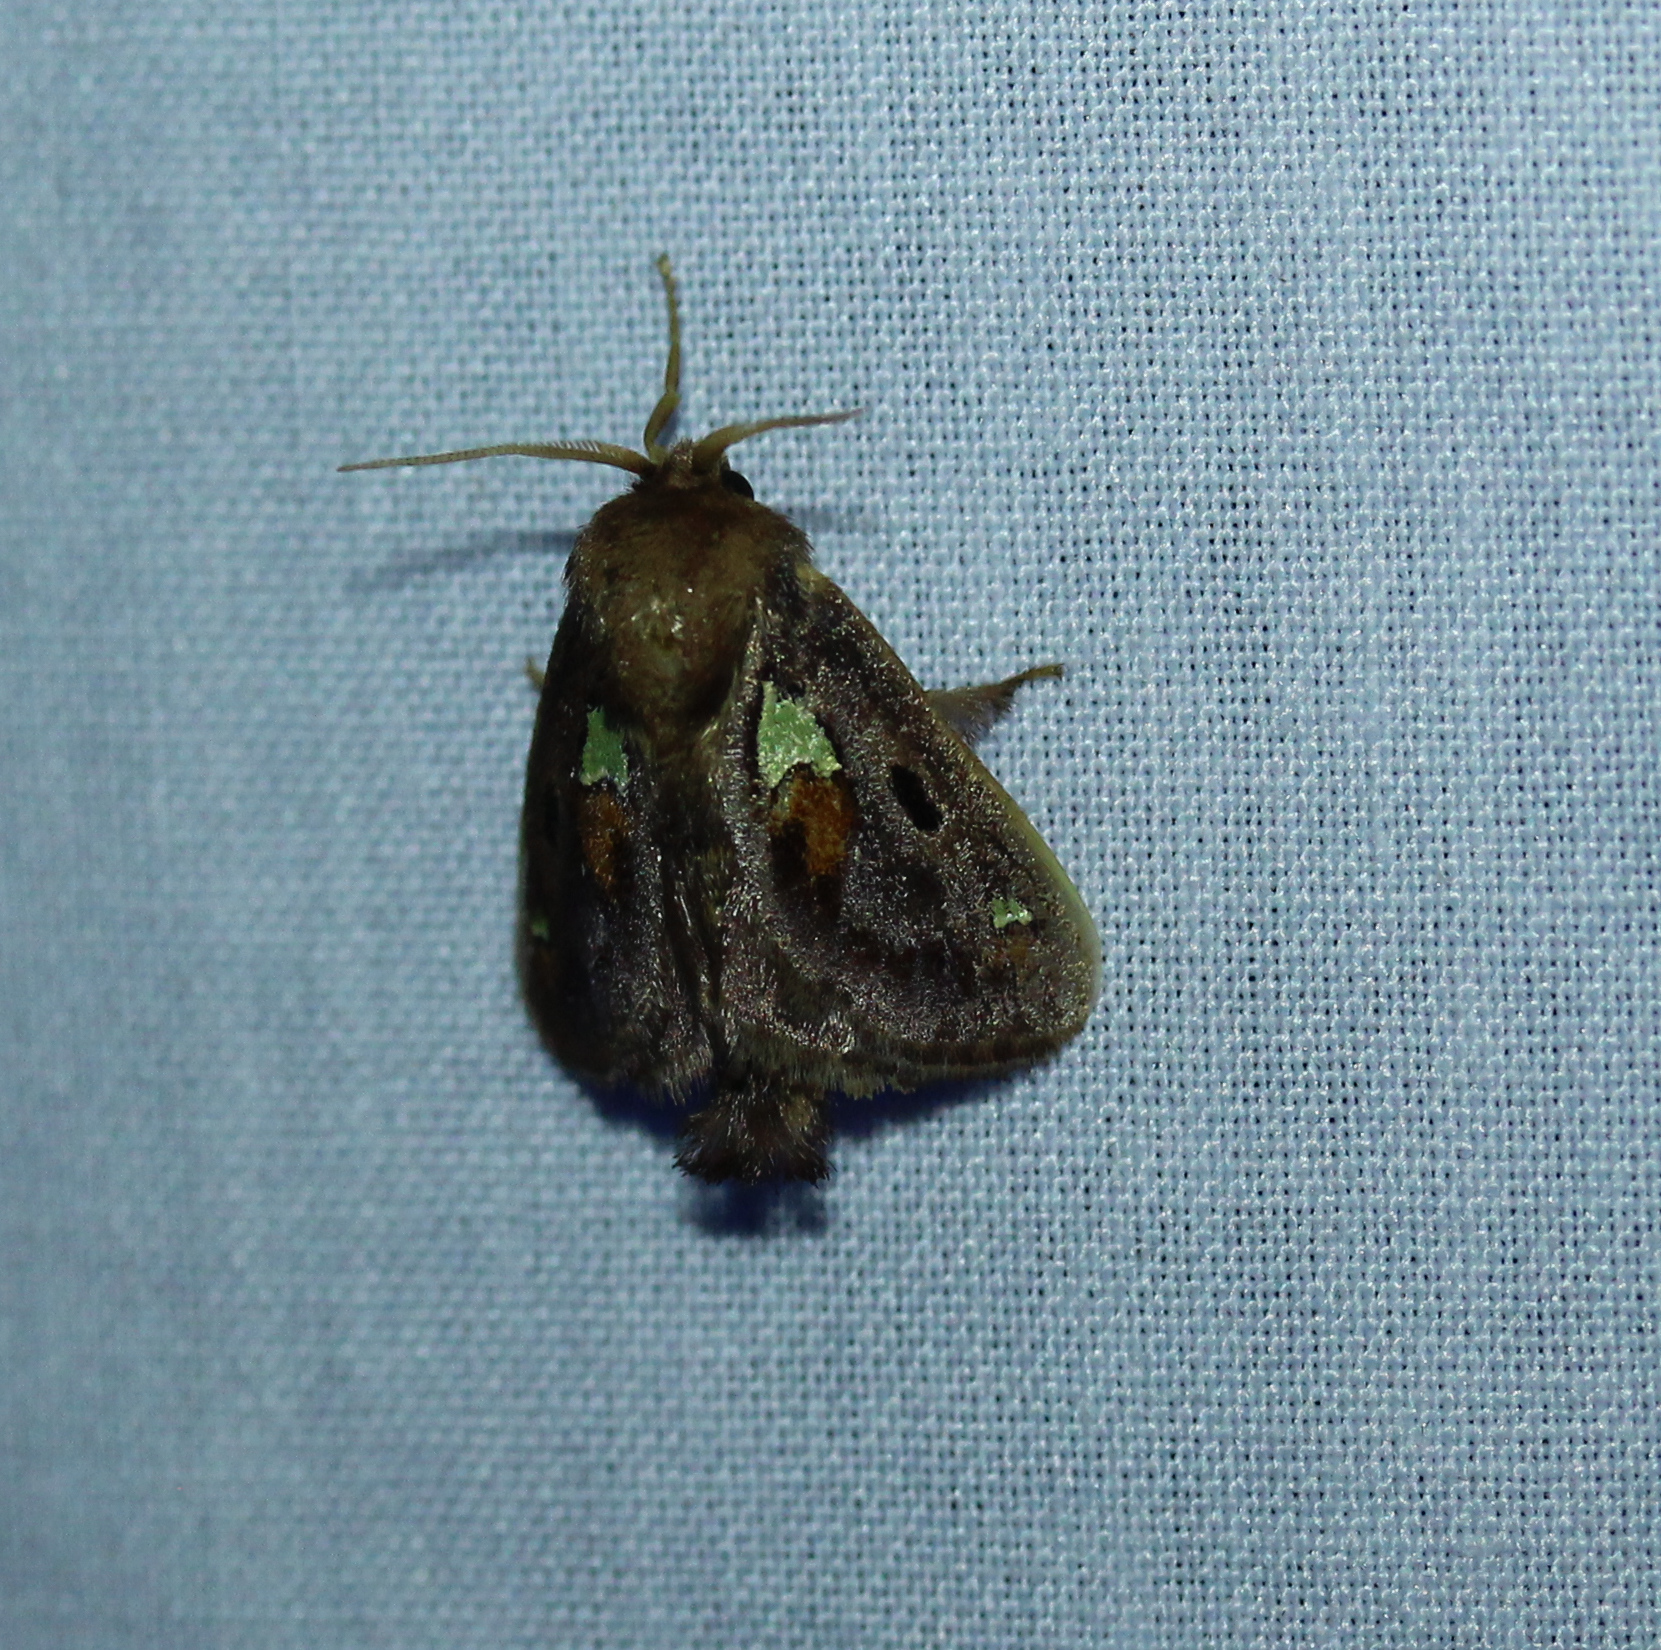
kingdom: Animalia
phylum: Arthropoda
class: Insecta
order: Lepidoptera
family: Limacodidae
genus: Euclea
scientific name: Euclea delphinii
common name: Spiny oak-slug moth
